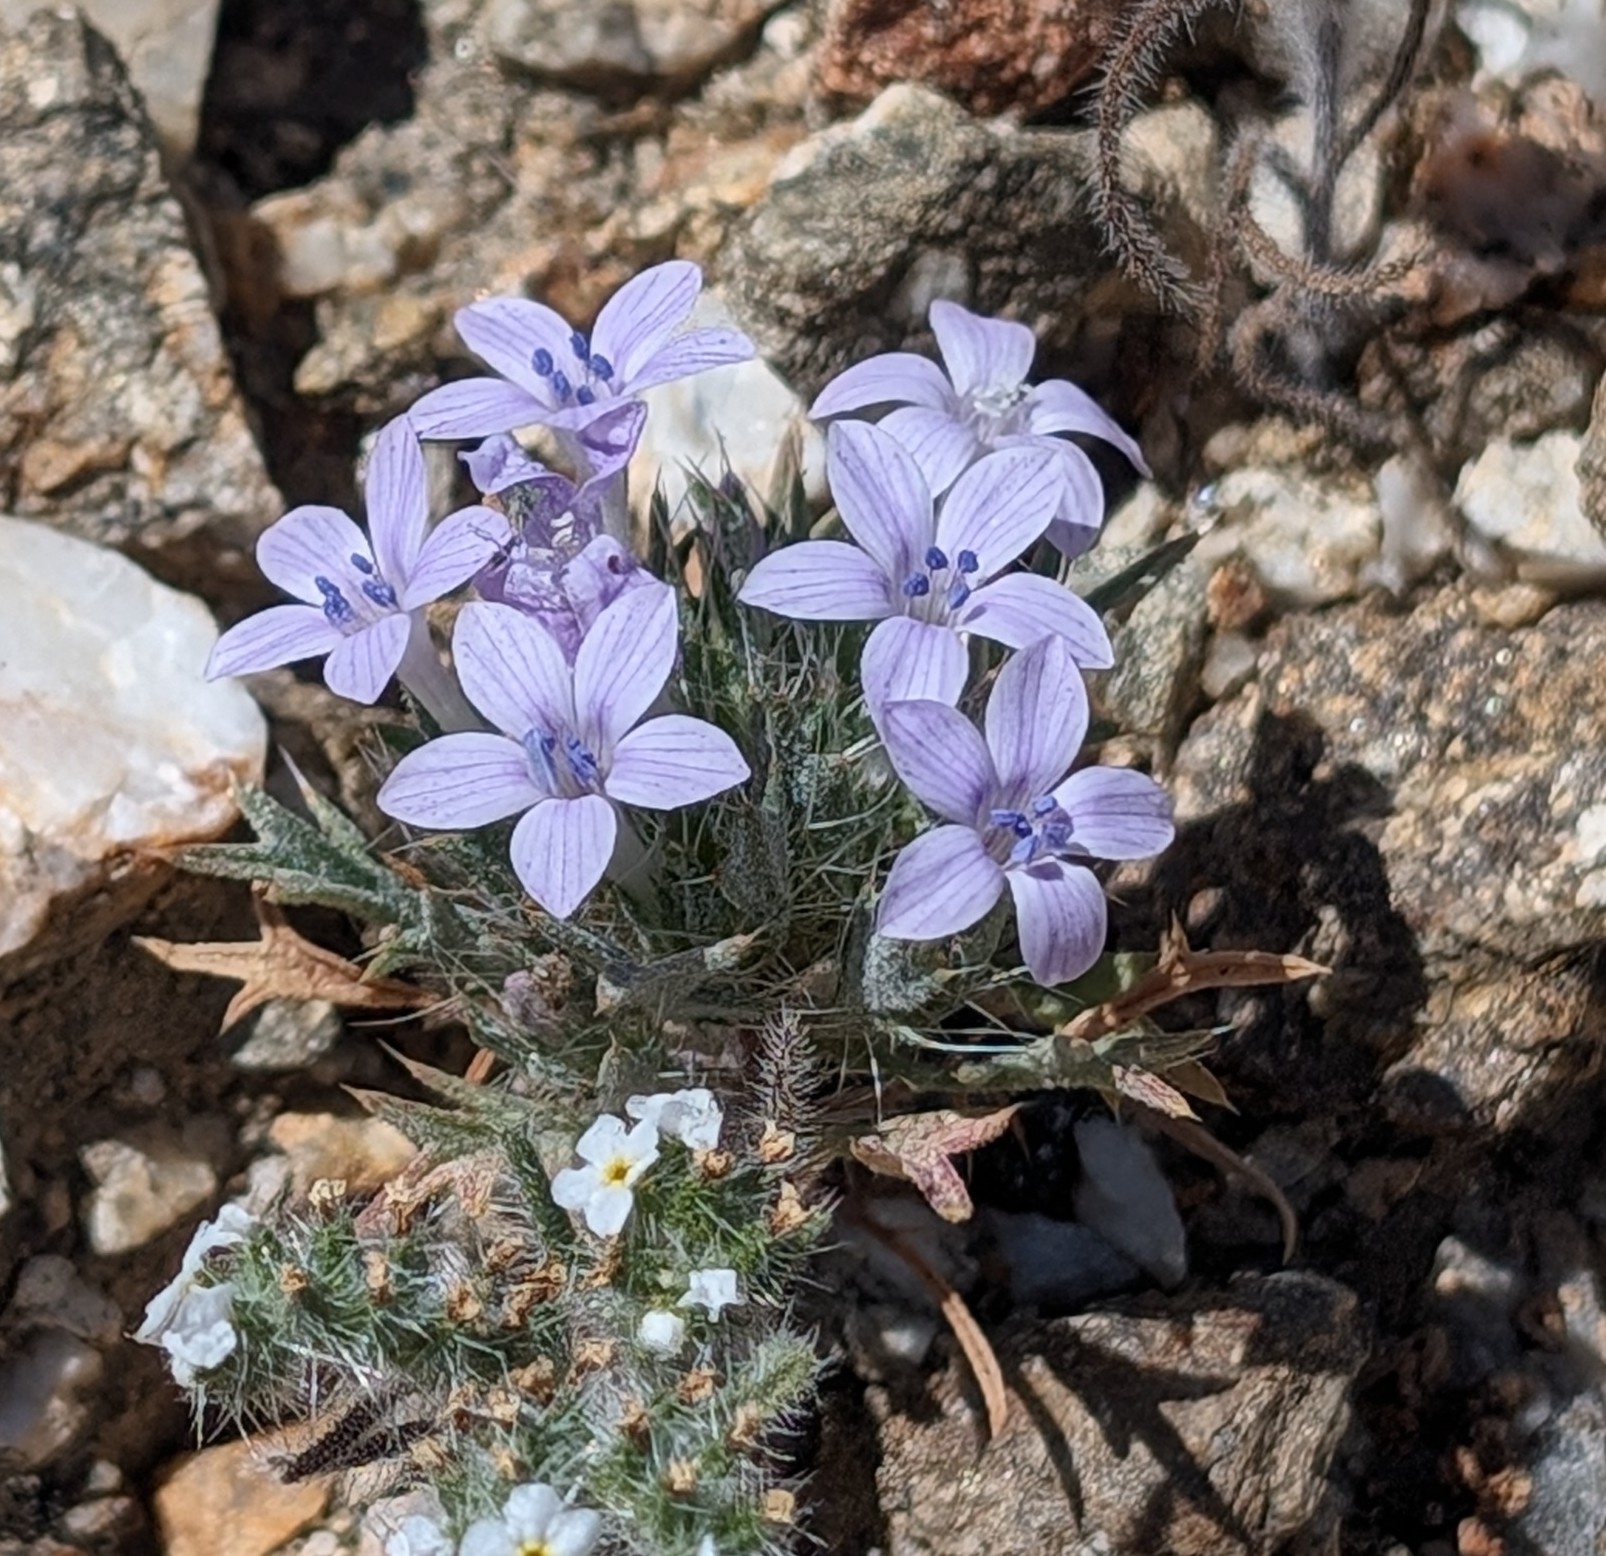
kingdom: Plantae
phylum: Tracheophyta
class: Magnoliopsida
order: Ericales
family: Polemoniaceae
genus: Langloisia
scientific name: Langloisia setosissima
